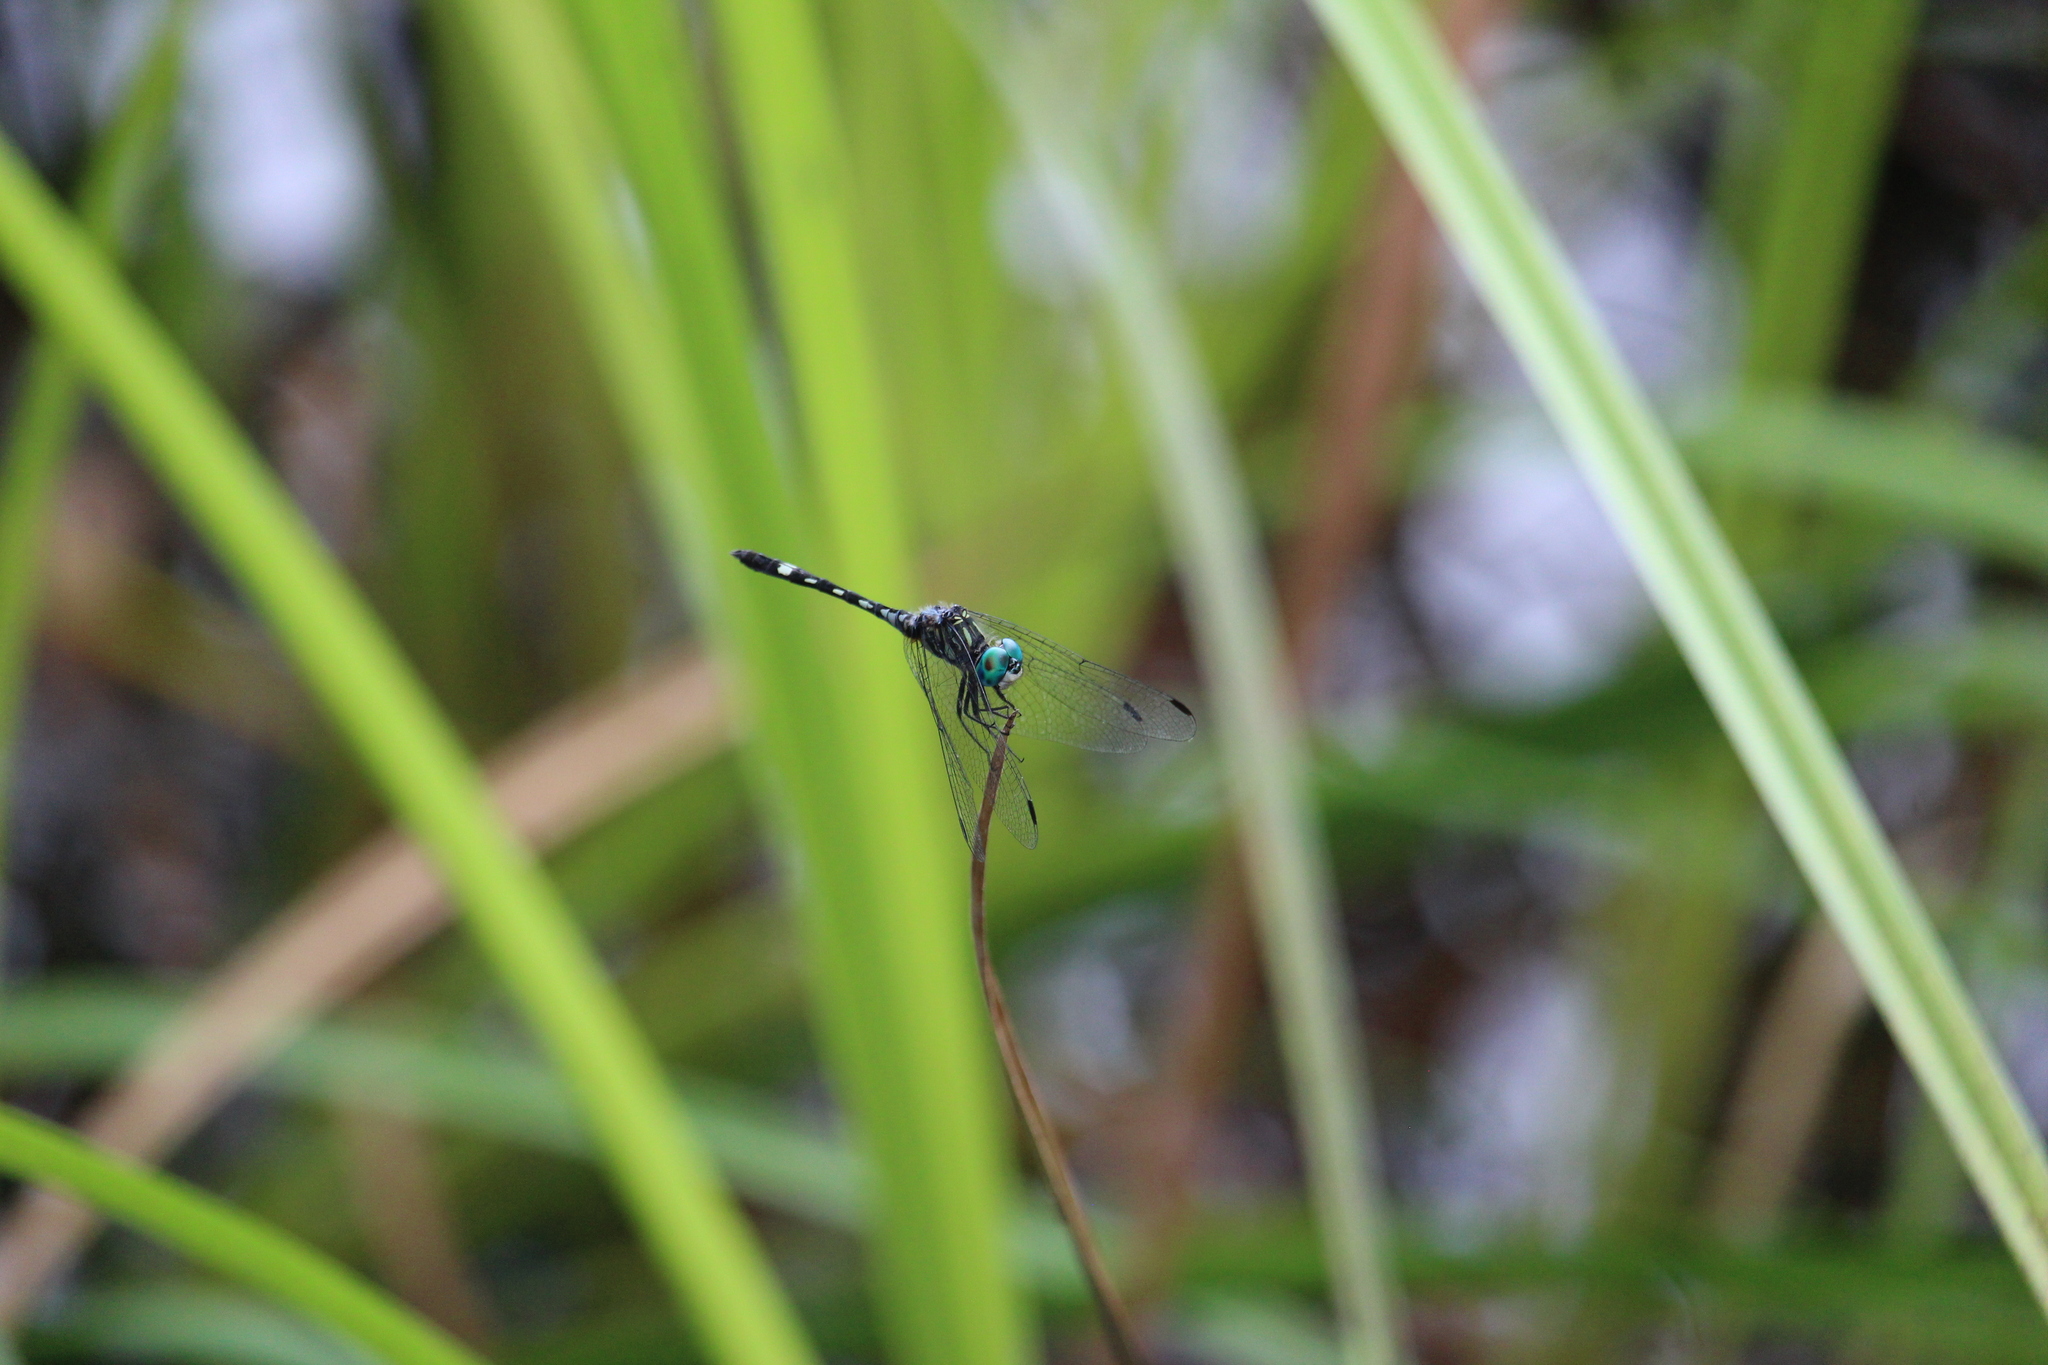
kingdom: Animalia
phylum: Arthropoda
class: Insecta
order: Odonata
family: Libellulidae
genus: Micrathyria
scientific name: Micrathyria hagenii
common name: Thornbush dasher
